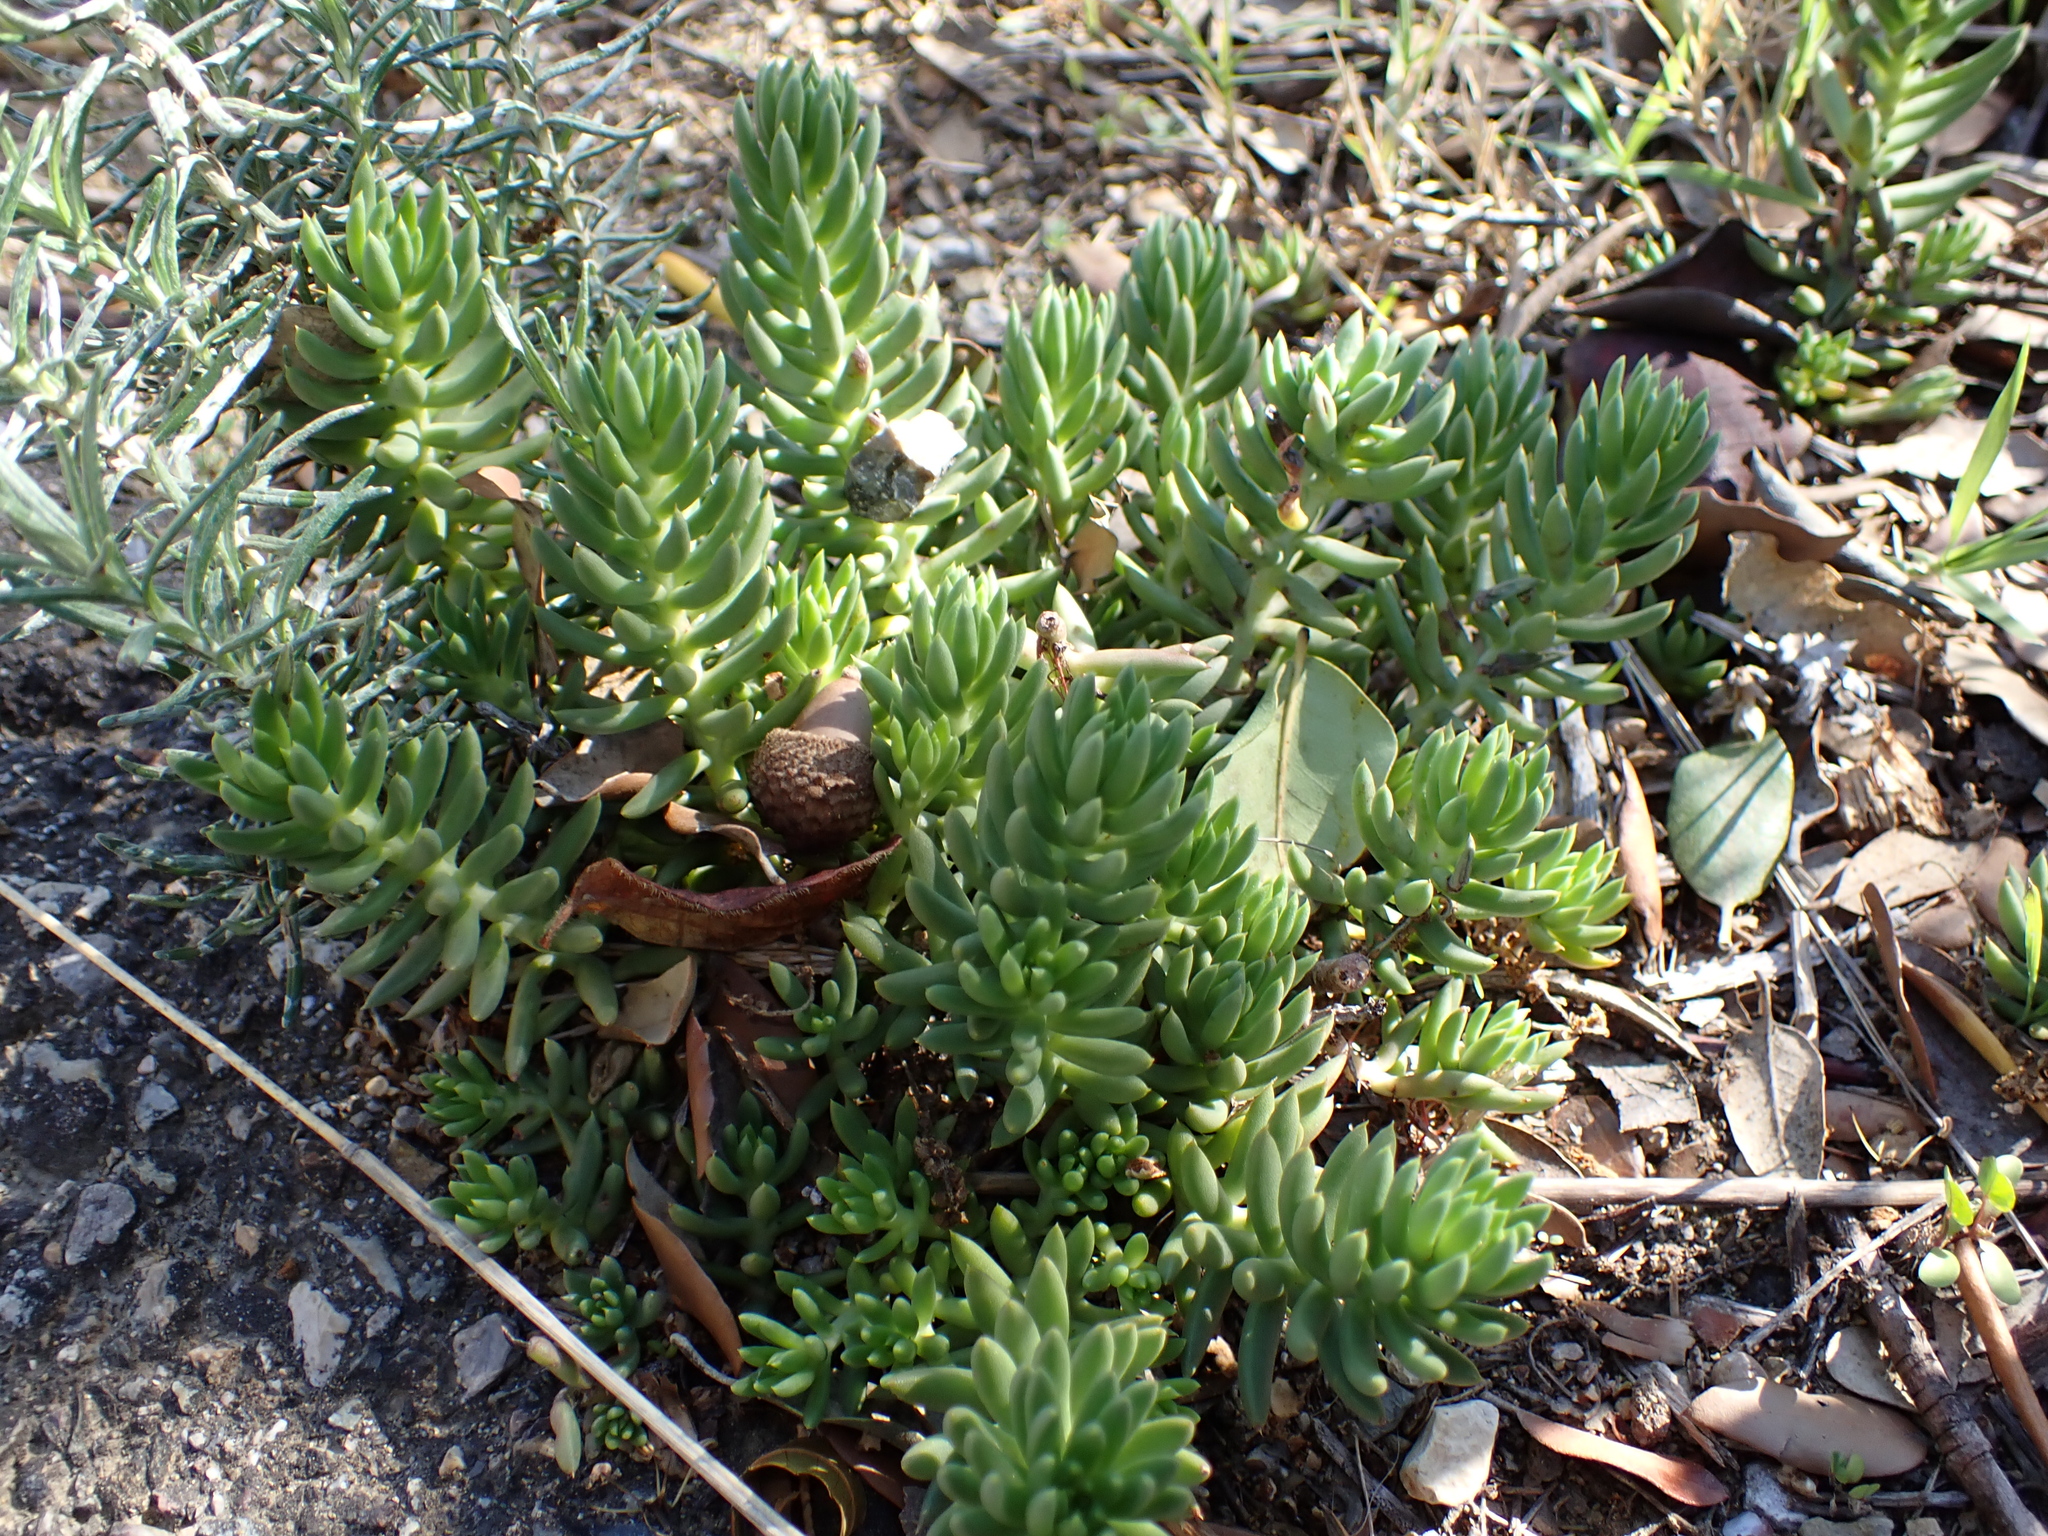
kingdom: Plantae
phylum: Tracheophyta
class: Magnoliopsida
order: Saxifragales
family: Crassulaceae
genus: Petrosedum
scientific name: Petrosedum sediforme
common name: Pale stonecrop
